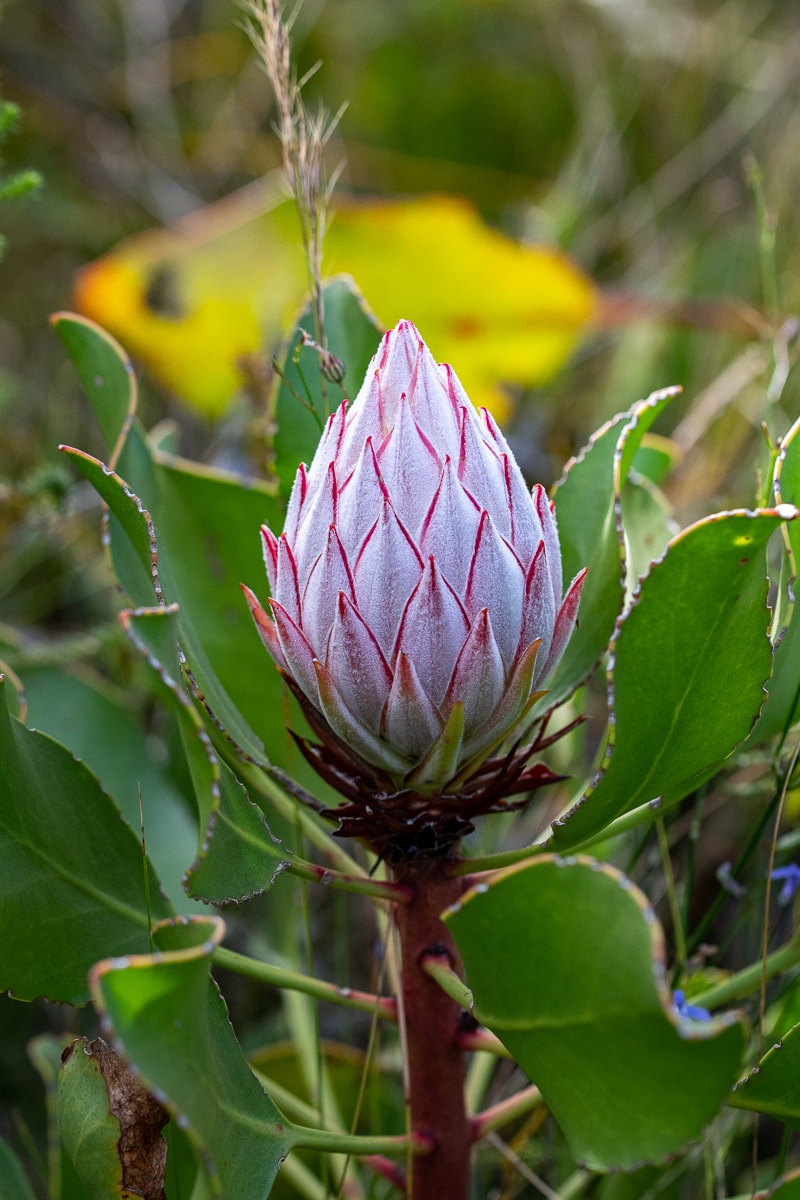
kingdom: Plantae
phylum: Tracheophyta
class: Magnoliopsida
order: Proteales
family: Proteaceae
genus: Protea
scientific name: Protea cynaroides
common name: King protea
